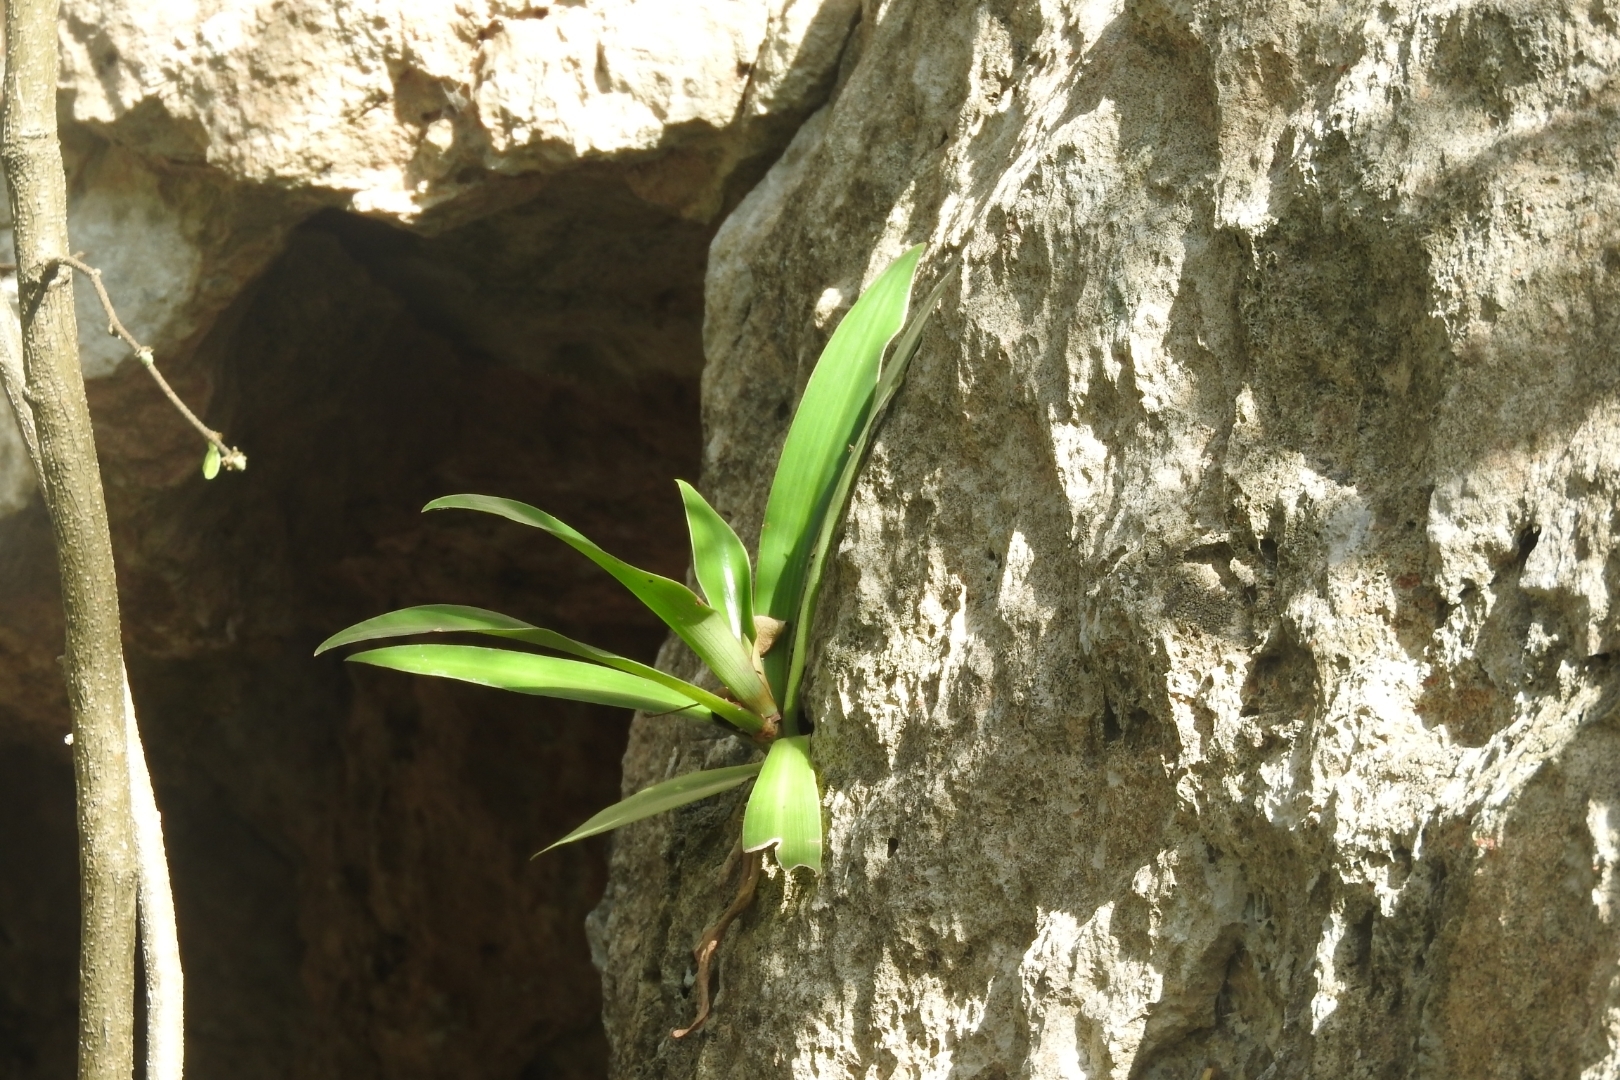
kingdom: Plantae
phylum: Tracheophyta
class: Liliopsida
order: Commelinales
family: Commelinaceae
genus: Callisia
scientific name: Callisia fragrans
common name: Basketplant
